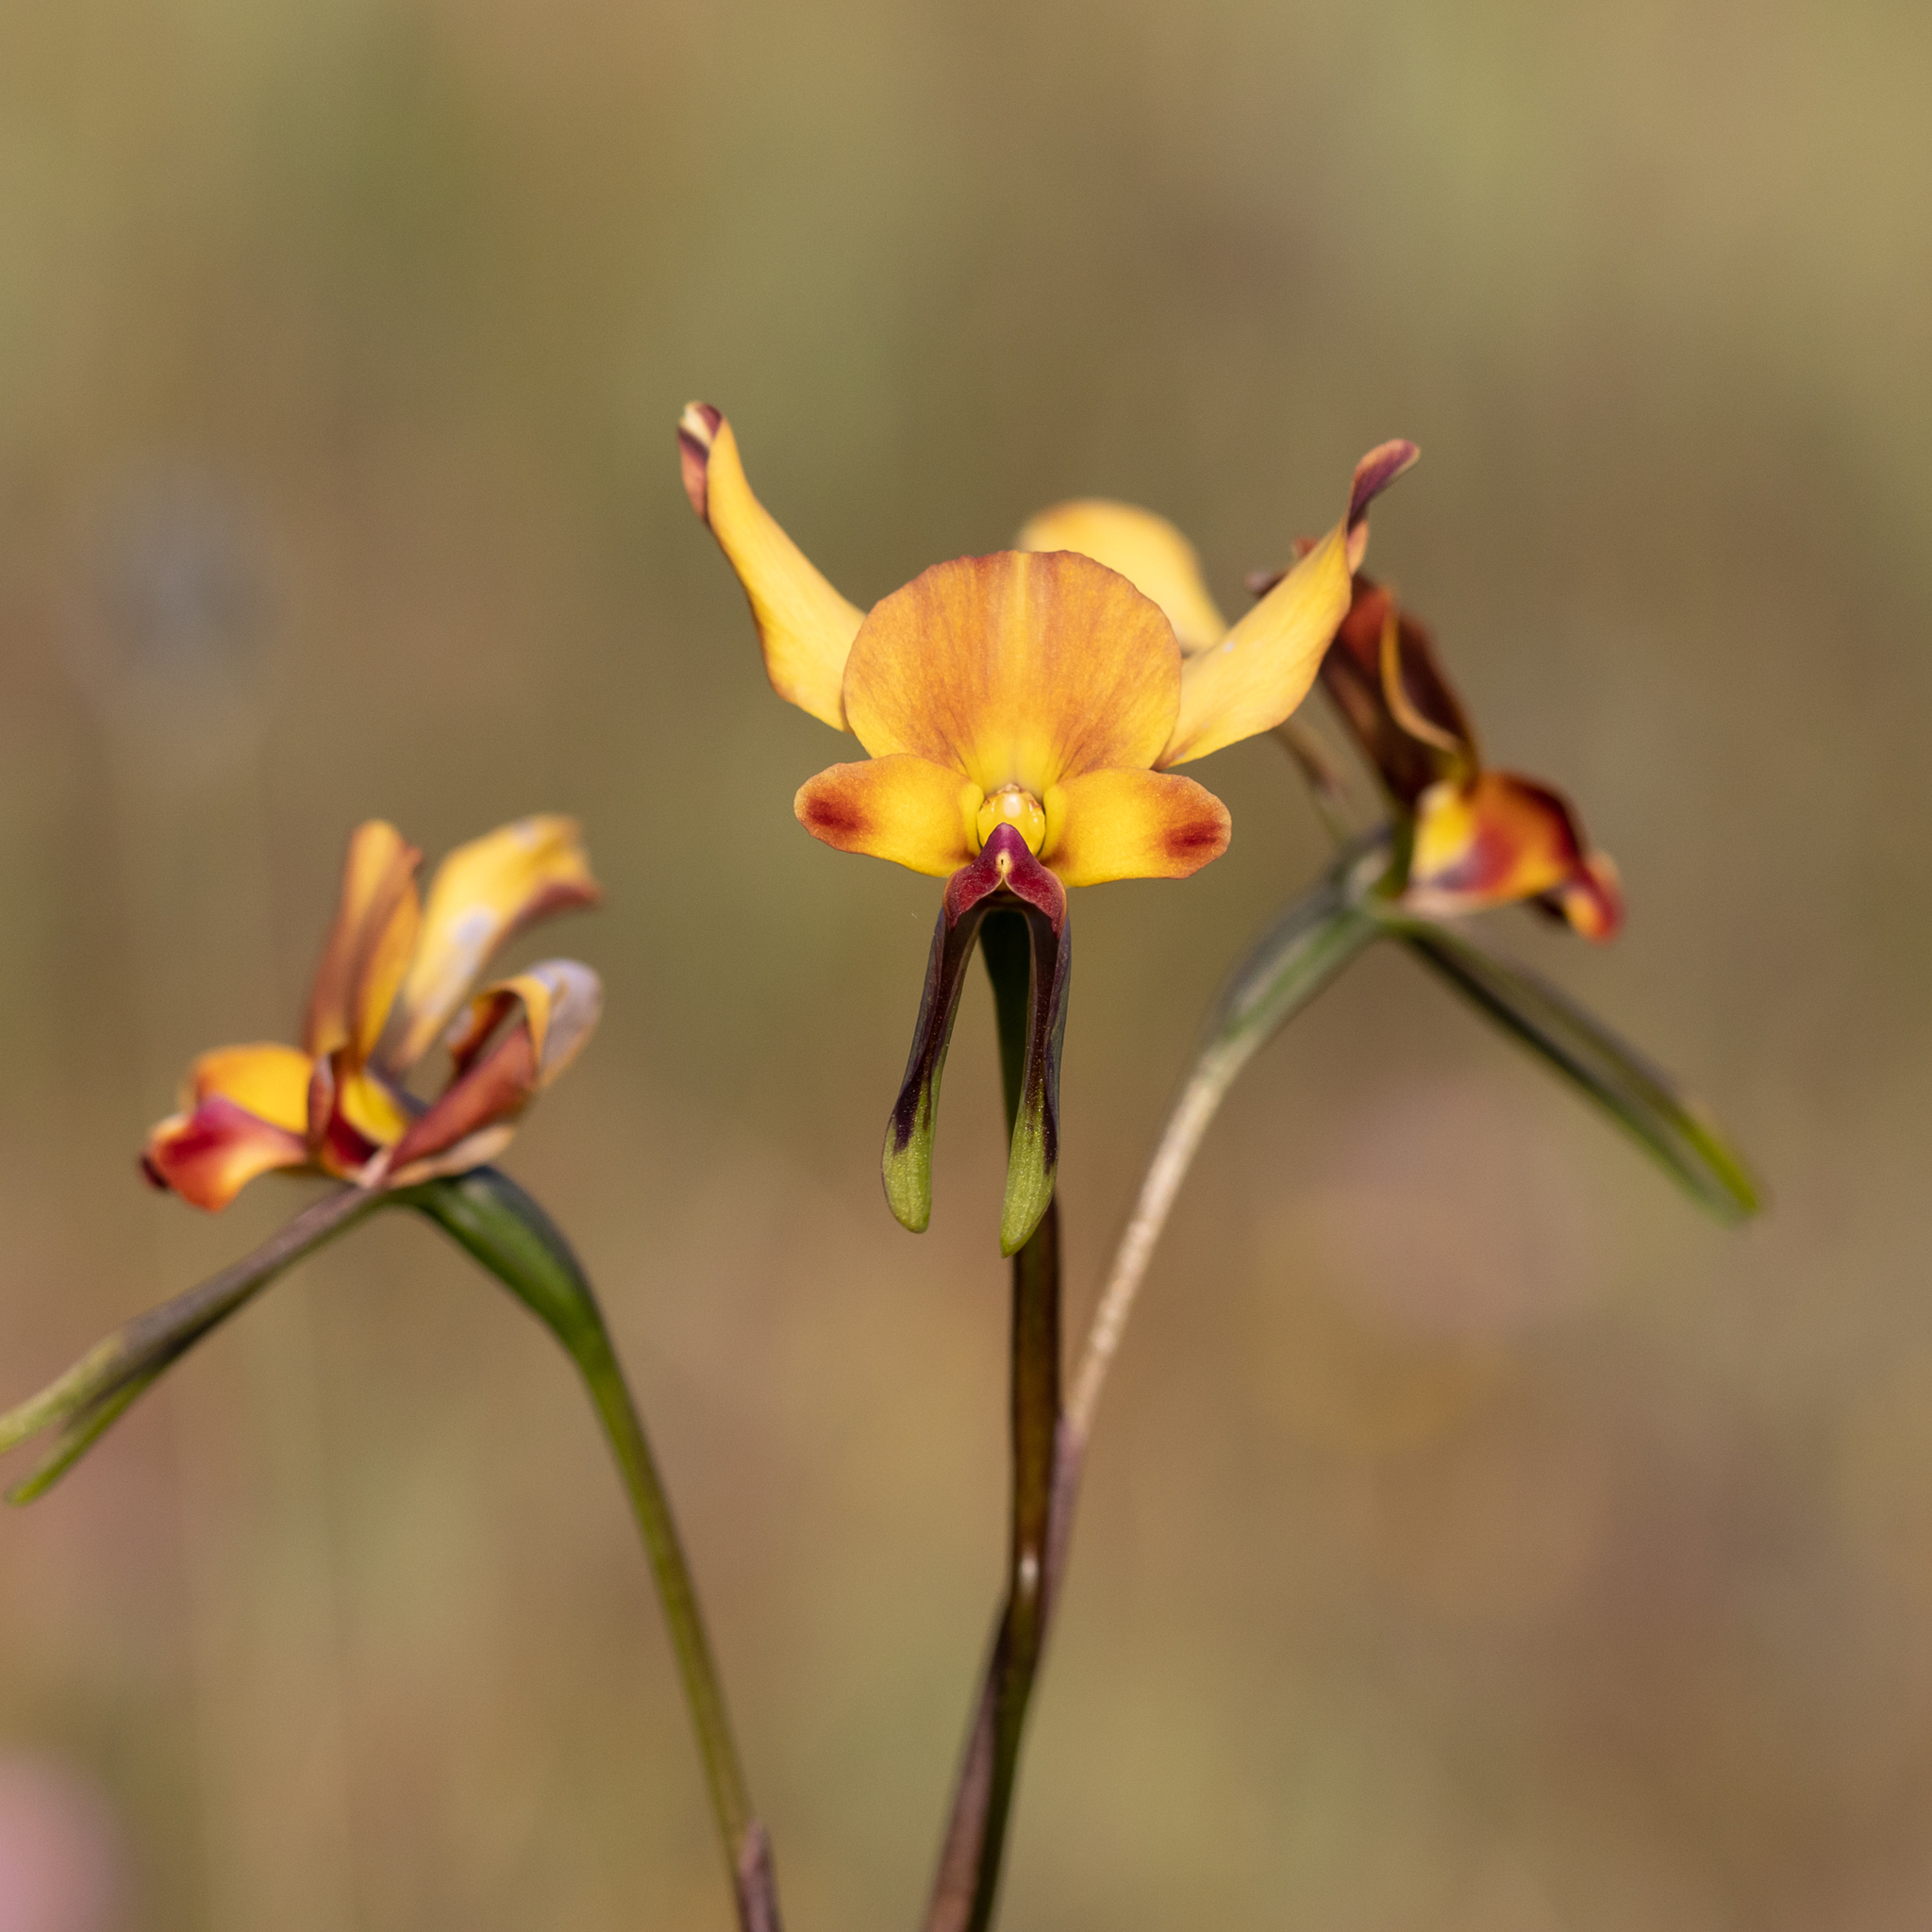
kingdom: Plantae
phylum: Tracheophyta
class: Liliopsida
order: Asparagales
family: Orchidaceae
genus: Diuris
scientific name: Diuris brachyscapa
